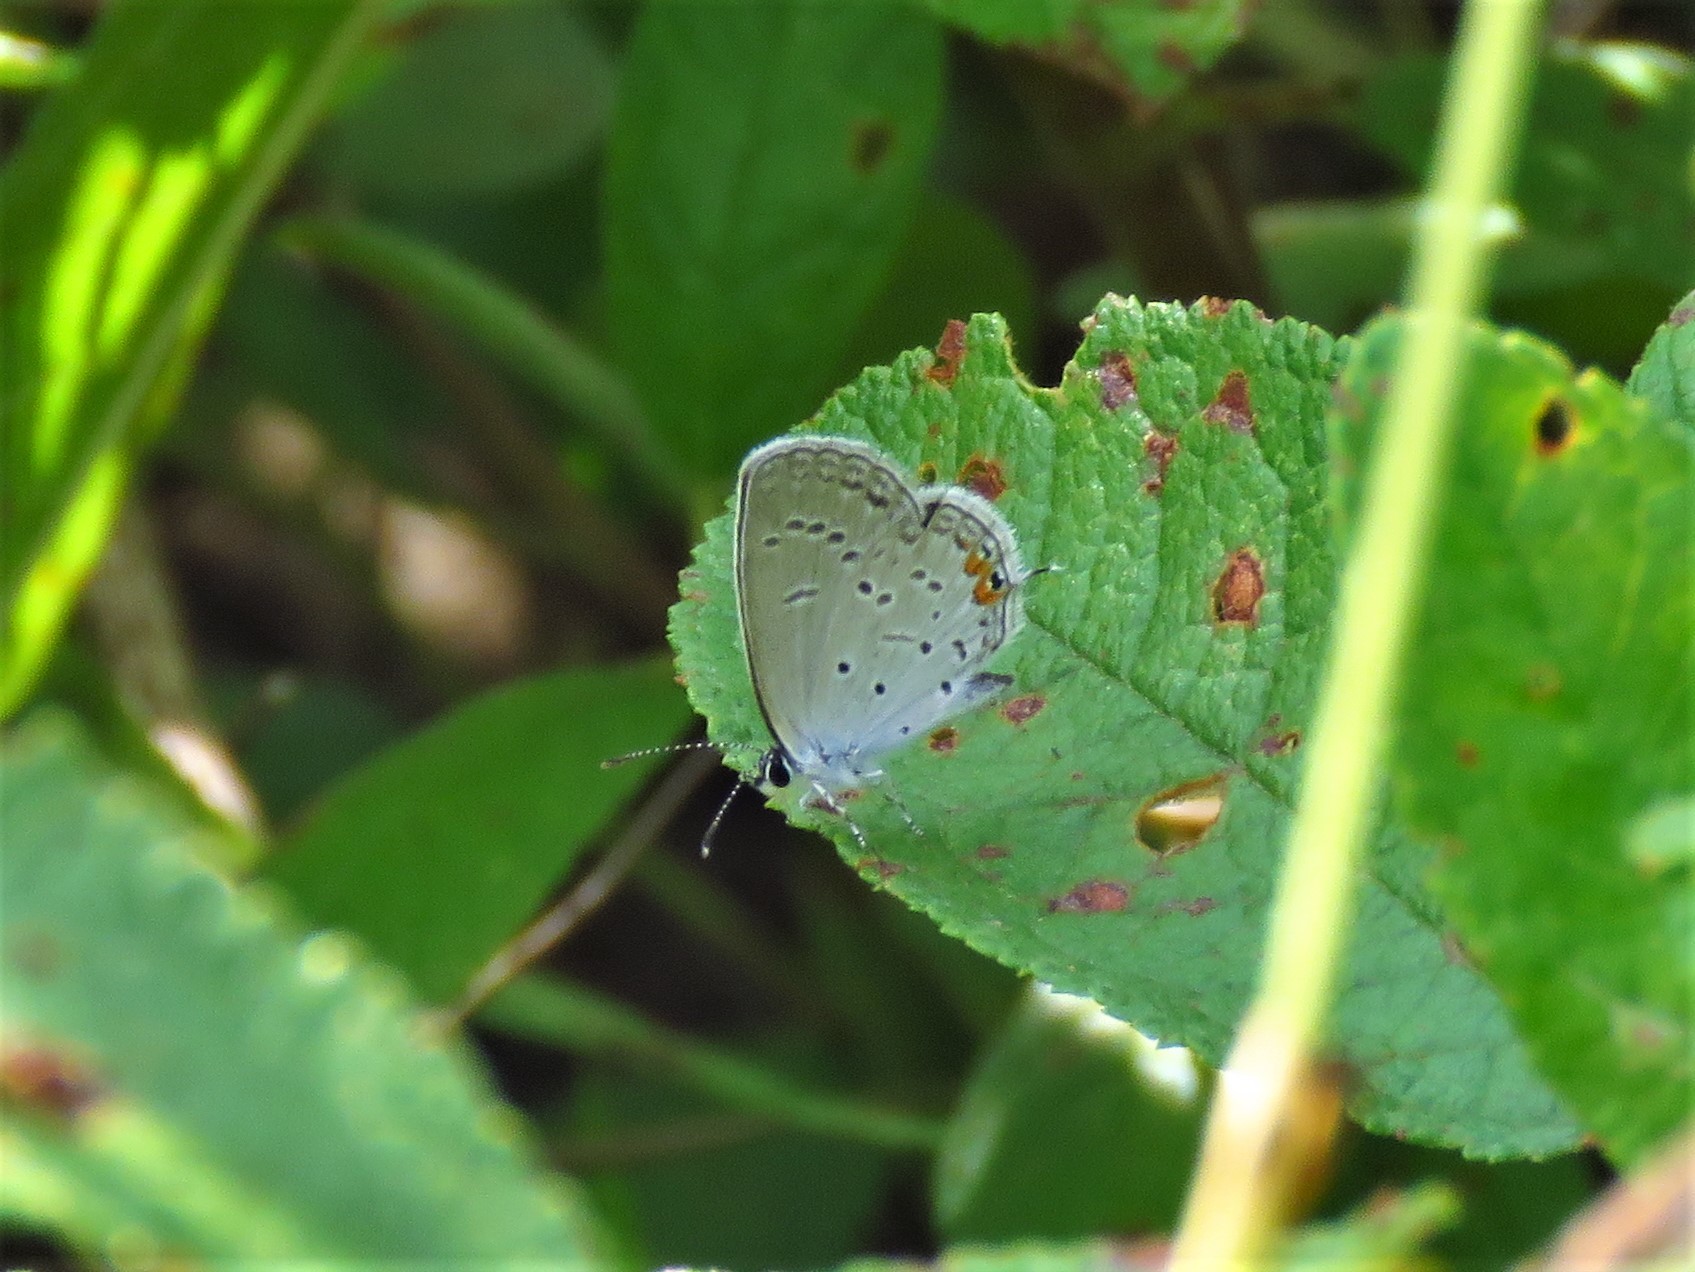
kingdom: Animalia
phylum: Arthropoda
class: Insecta
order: Lepidoptera
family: Lycaenidae
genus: Elkalyce
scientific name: Elkalyce comyntas
